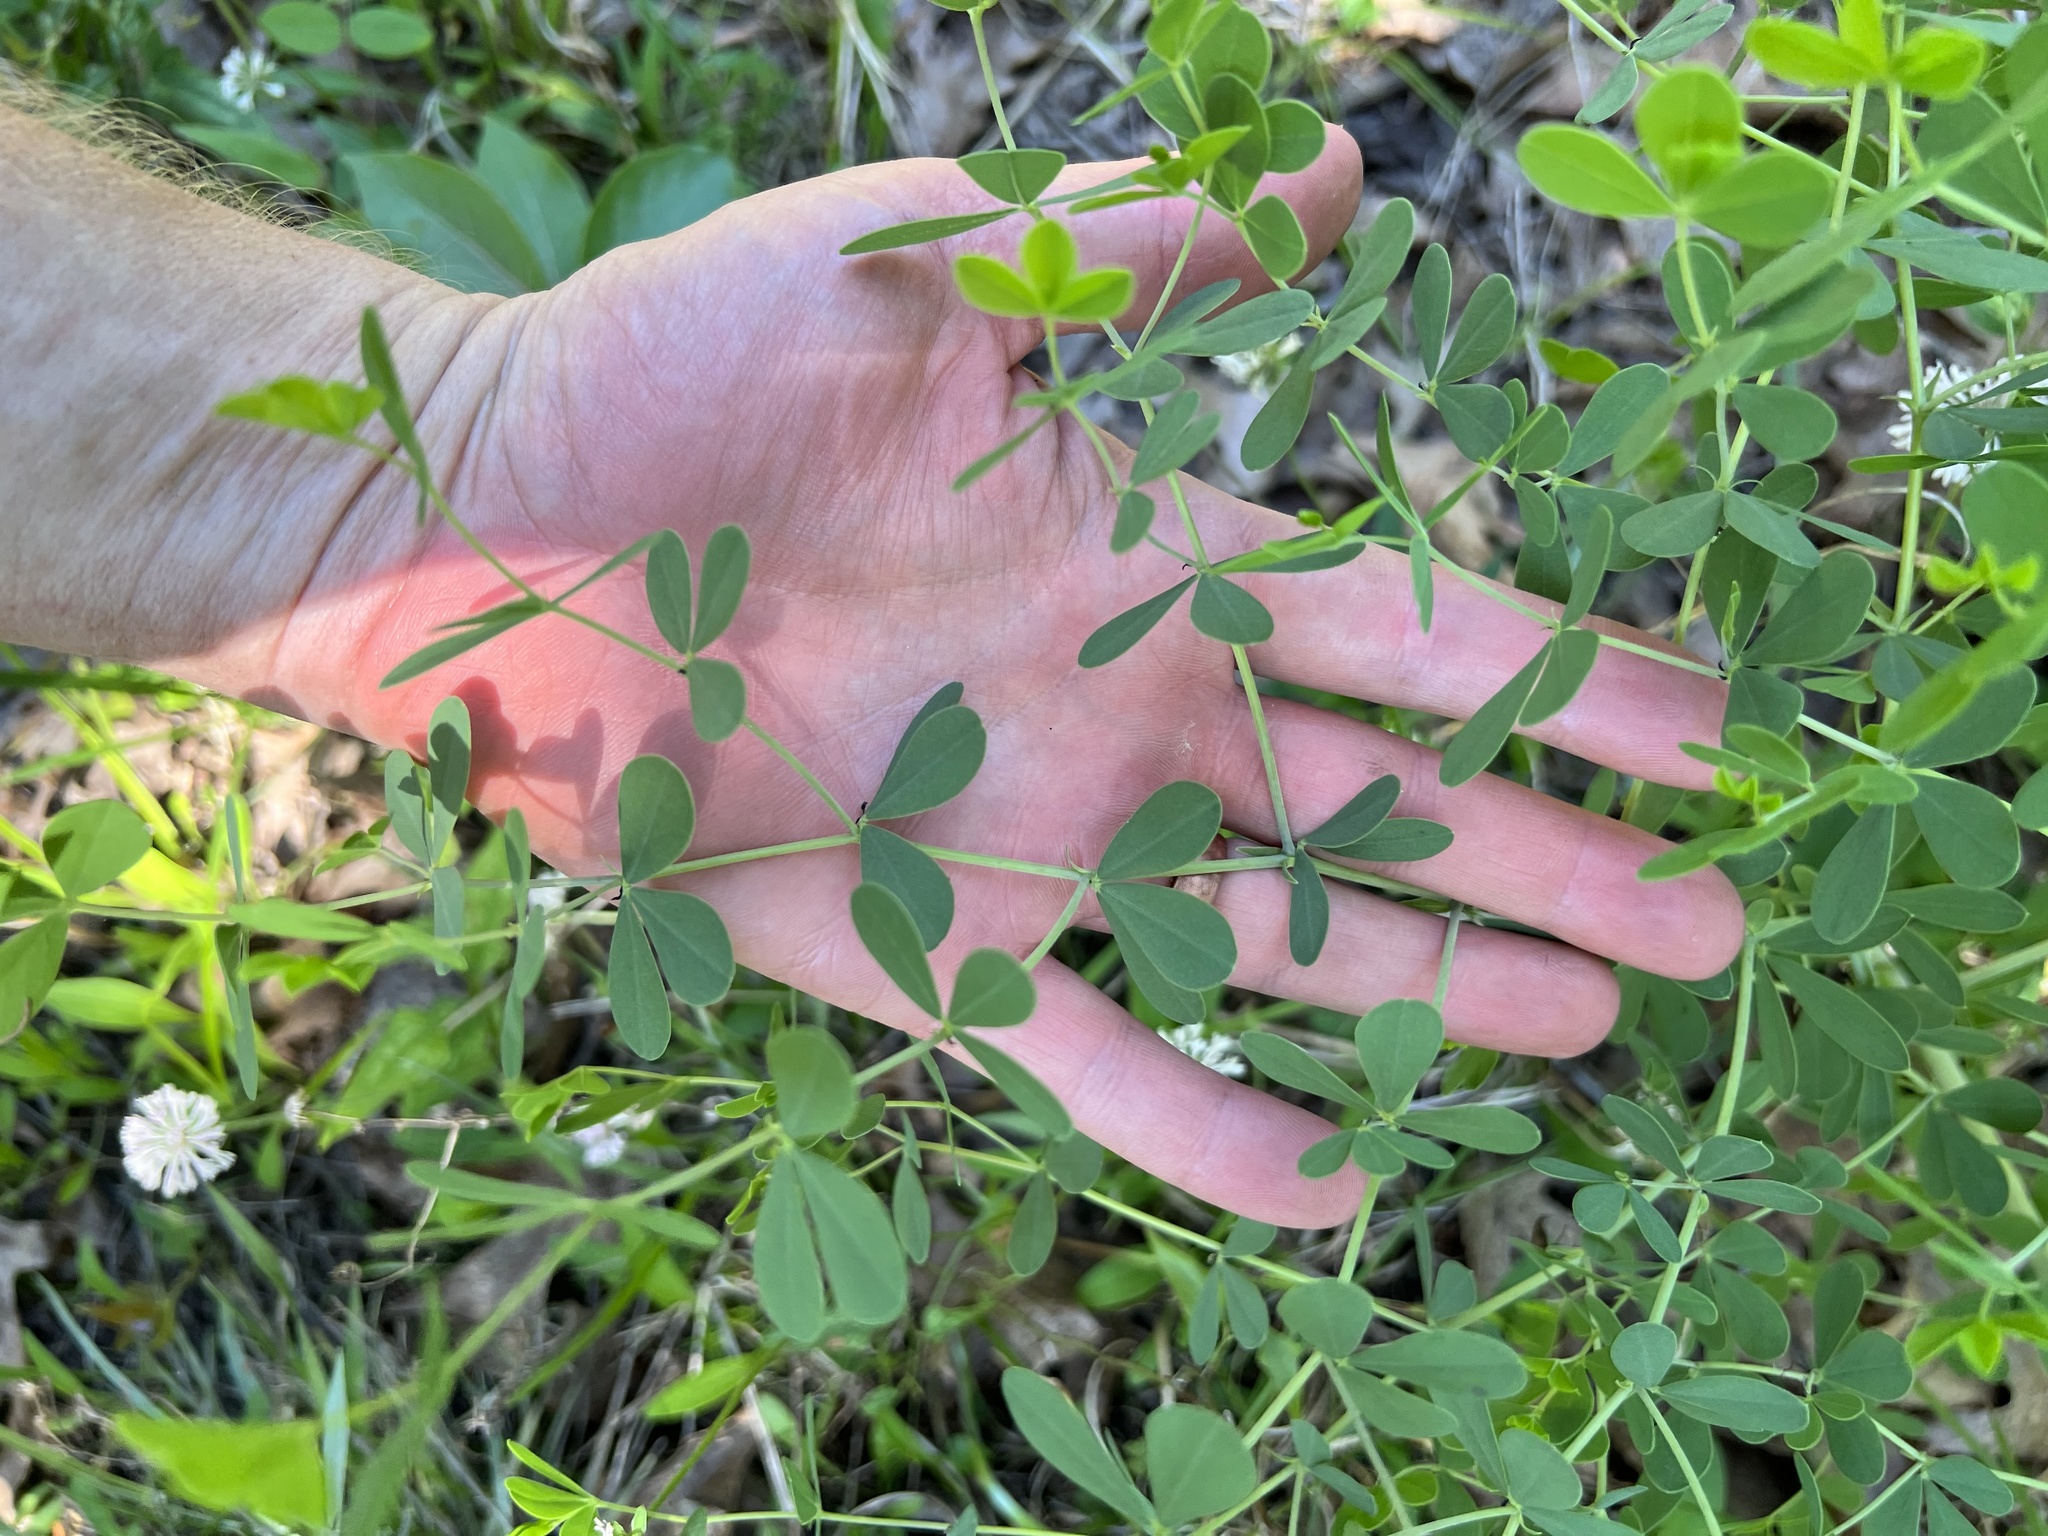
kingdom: Plantae
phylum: Tracheophyta
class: Magnoliopsida
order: Fabales
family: Fabaceae
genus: Baptisia
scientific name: Baptisia aberrans
